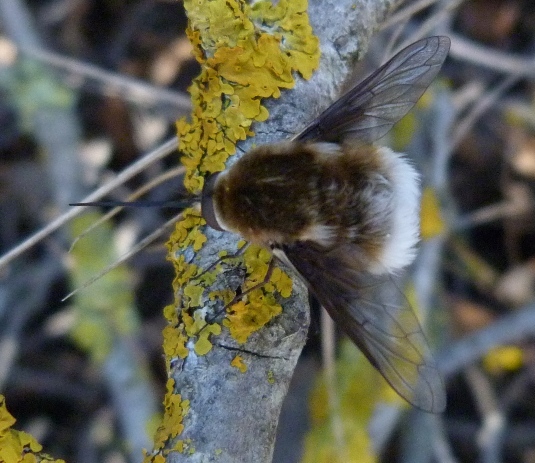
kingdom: Animalia
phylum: Arthropoda
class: Insecta
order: Diptera
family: Bombyliidae
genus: Bombylius
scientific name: Bombylius cruciatus
